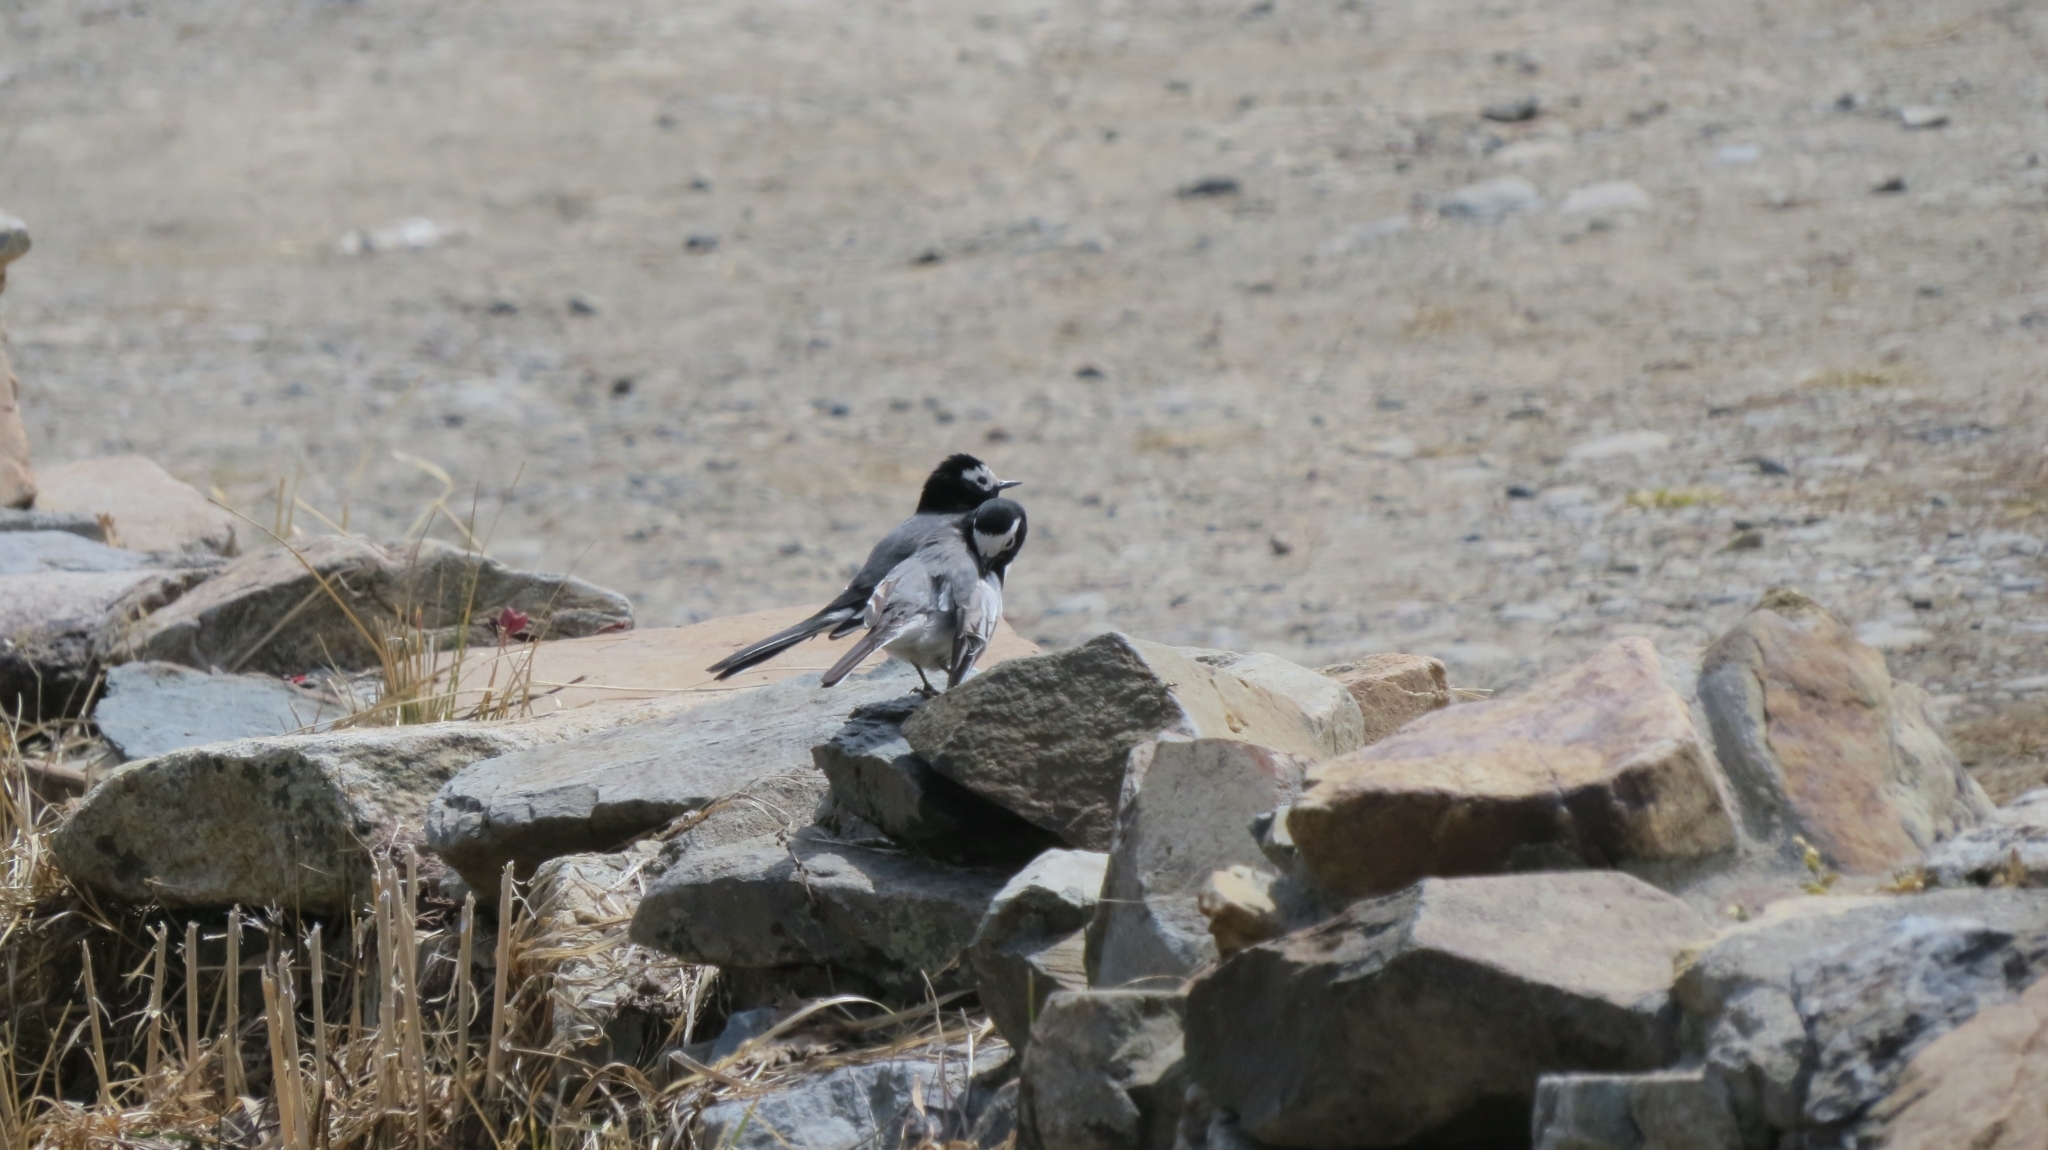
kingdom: Animalia
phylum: Chordata
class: Aves
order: Passeriformes
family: Motacillidae
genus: Motacilla
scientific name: Motacilla alba
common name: White wagtail
